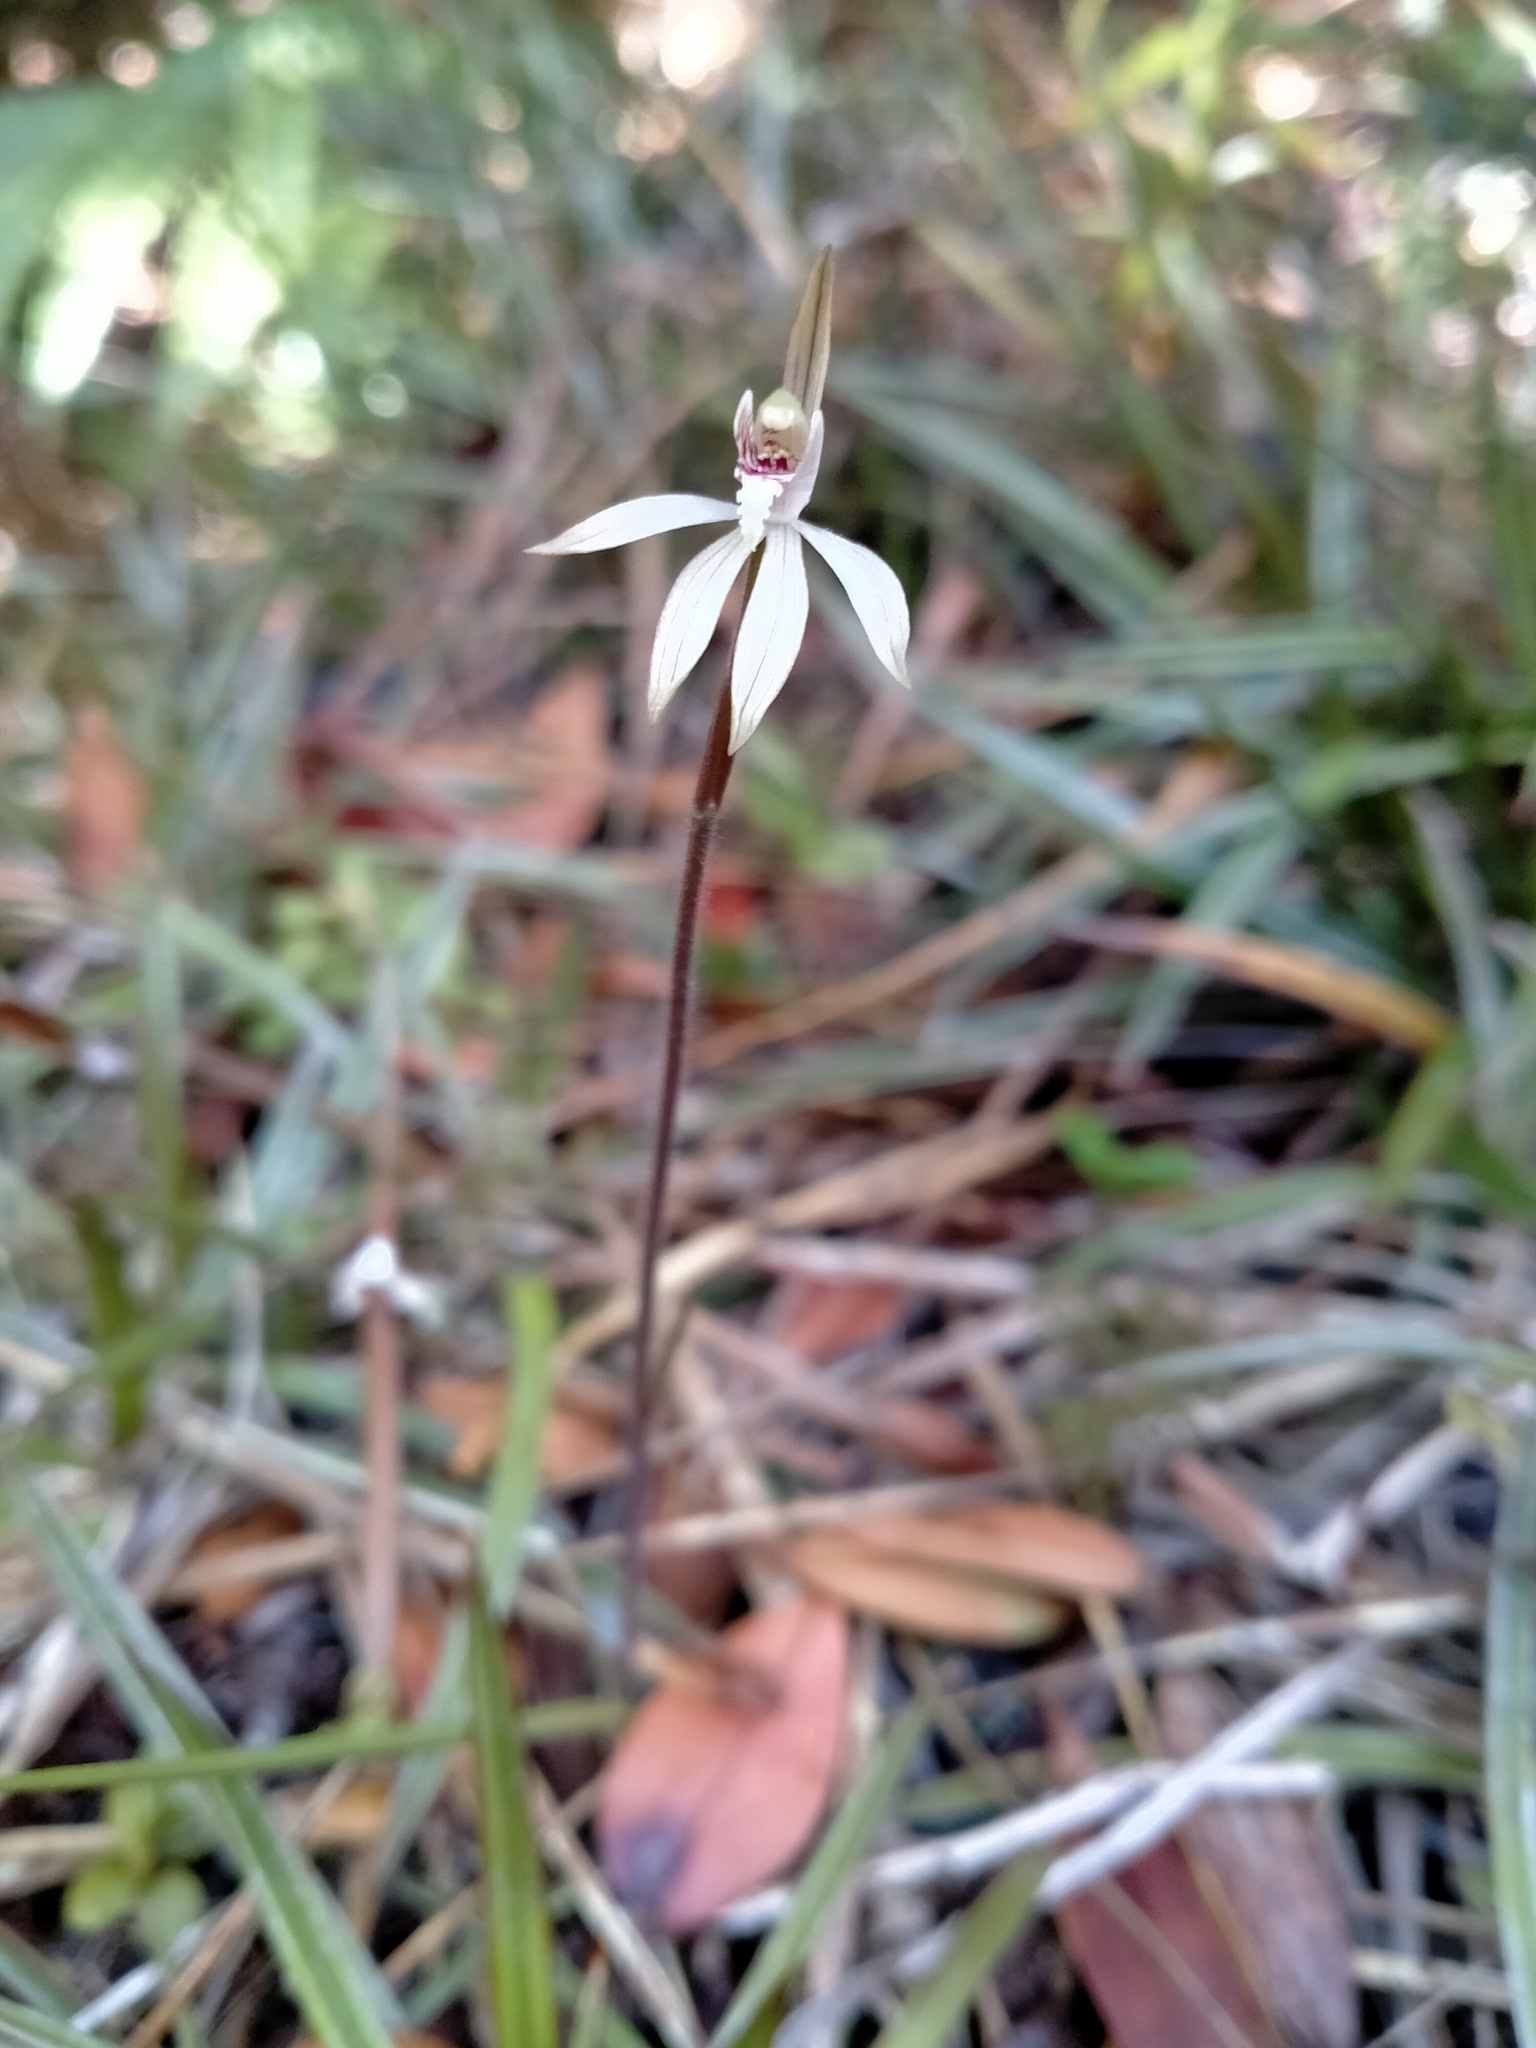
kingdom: Plantae
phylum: Tracheophyta
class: Liliopsida
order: Asparagales
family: Orchidaceae
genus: Caladenia
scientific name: Caladenia chlorostyla
